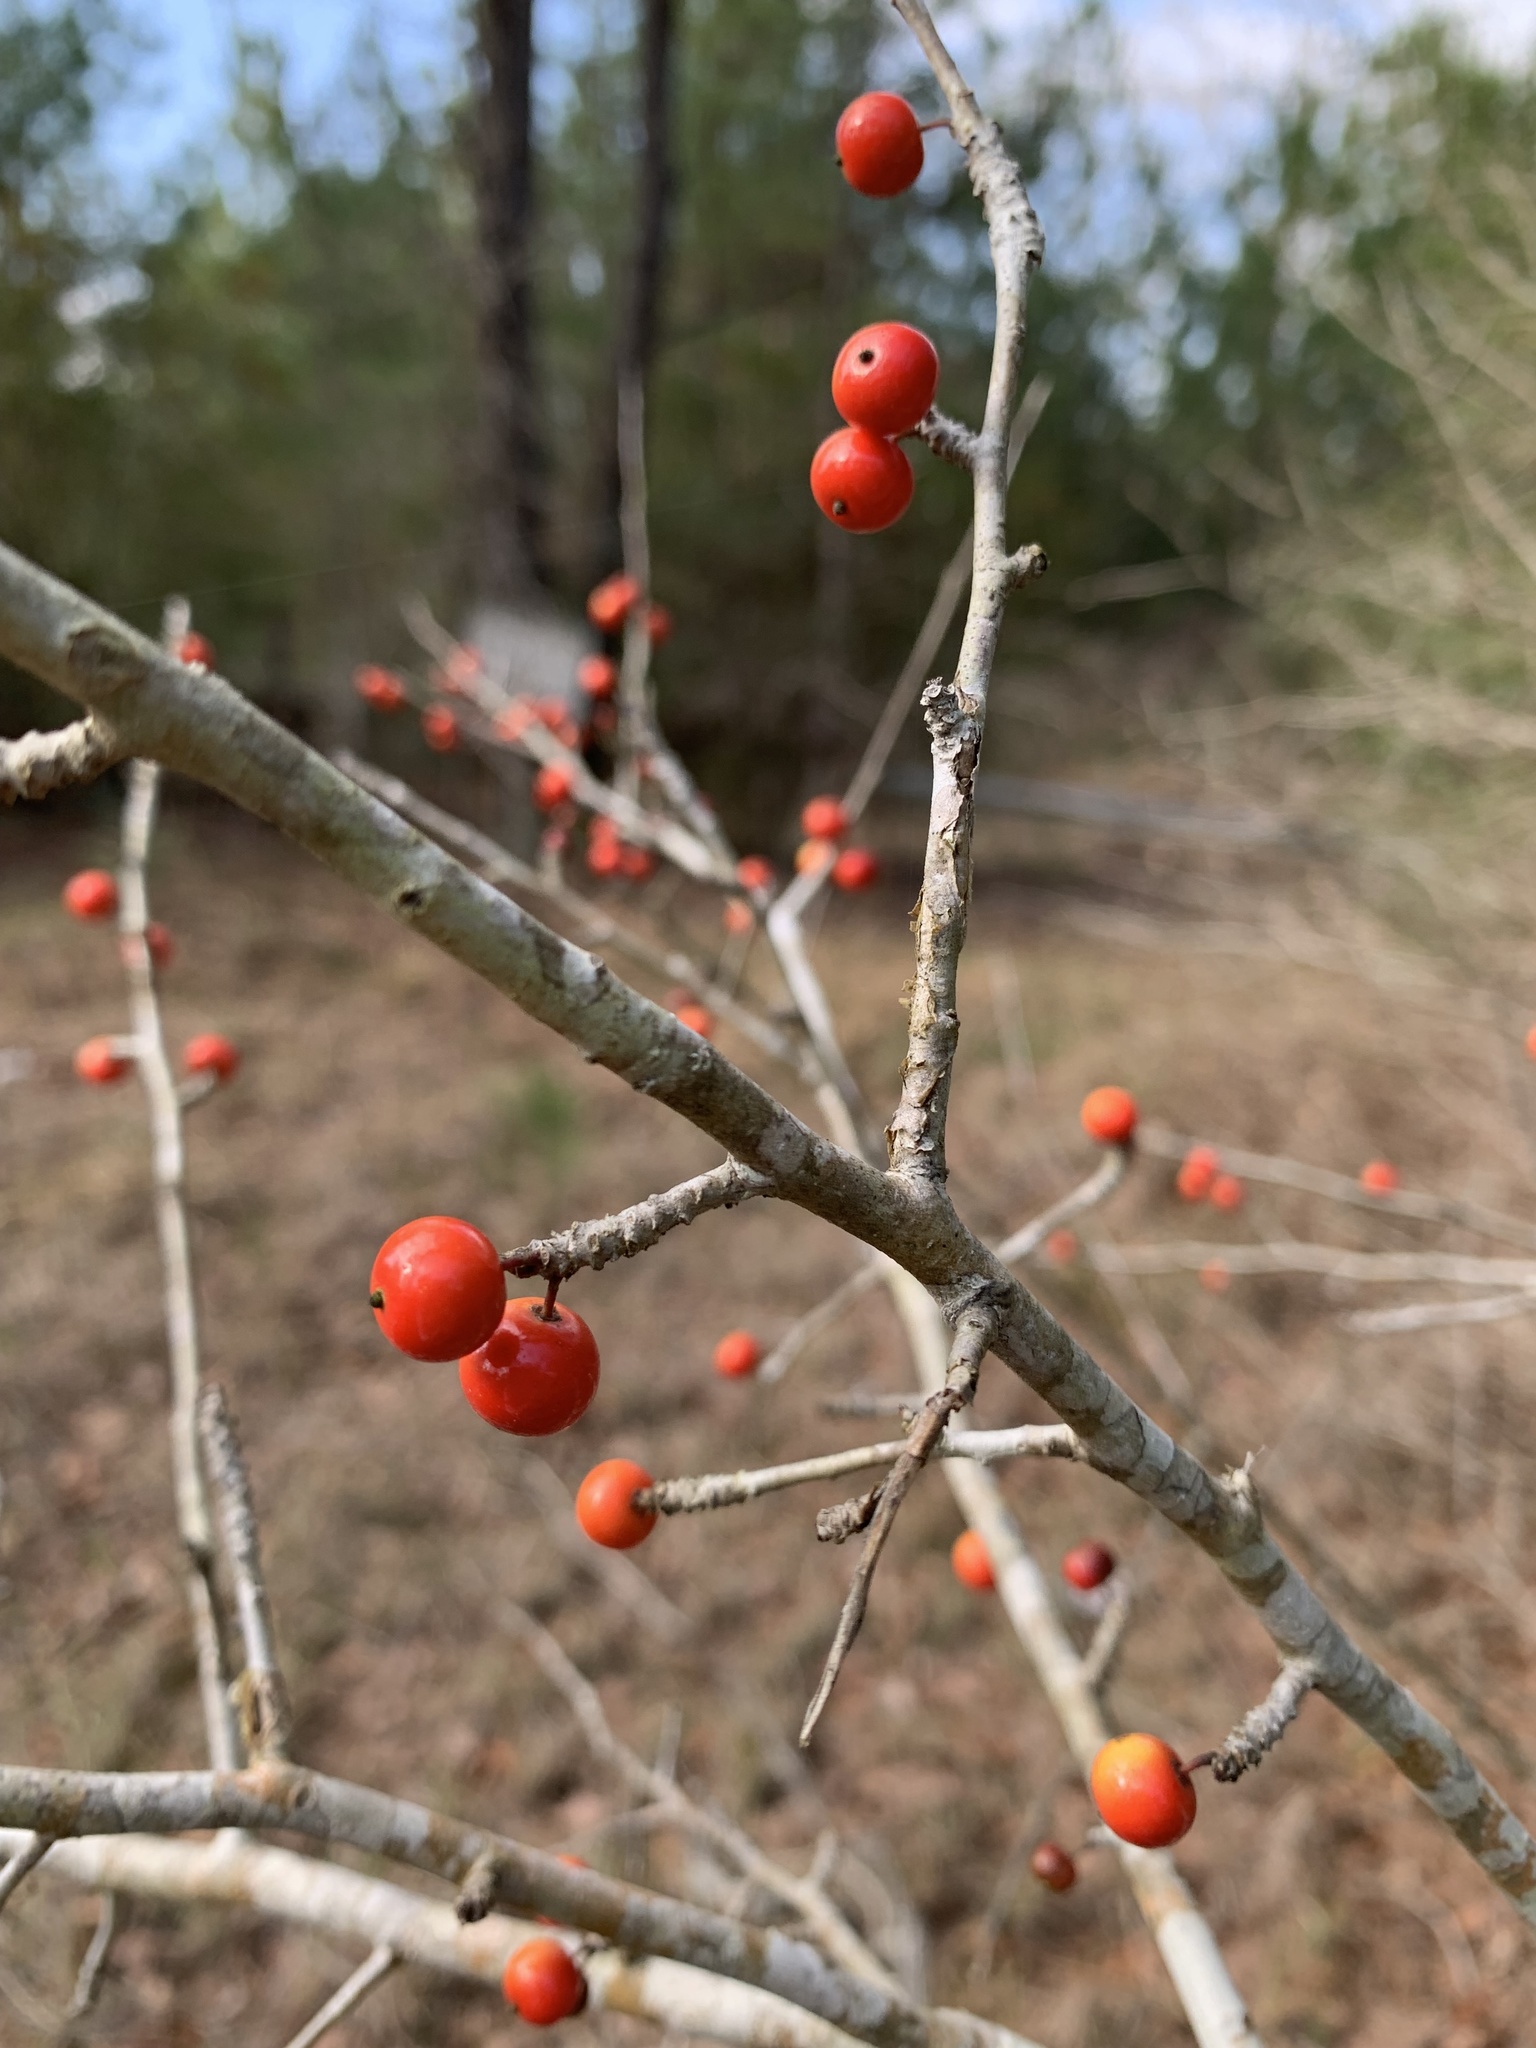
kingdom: Plantae
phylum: Tracheophyta
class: Magnoliopsida
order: Aquifoliales
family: Aquifoliaceae
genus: Ilex
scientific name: Ilex decidua
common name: Possum-haw
